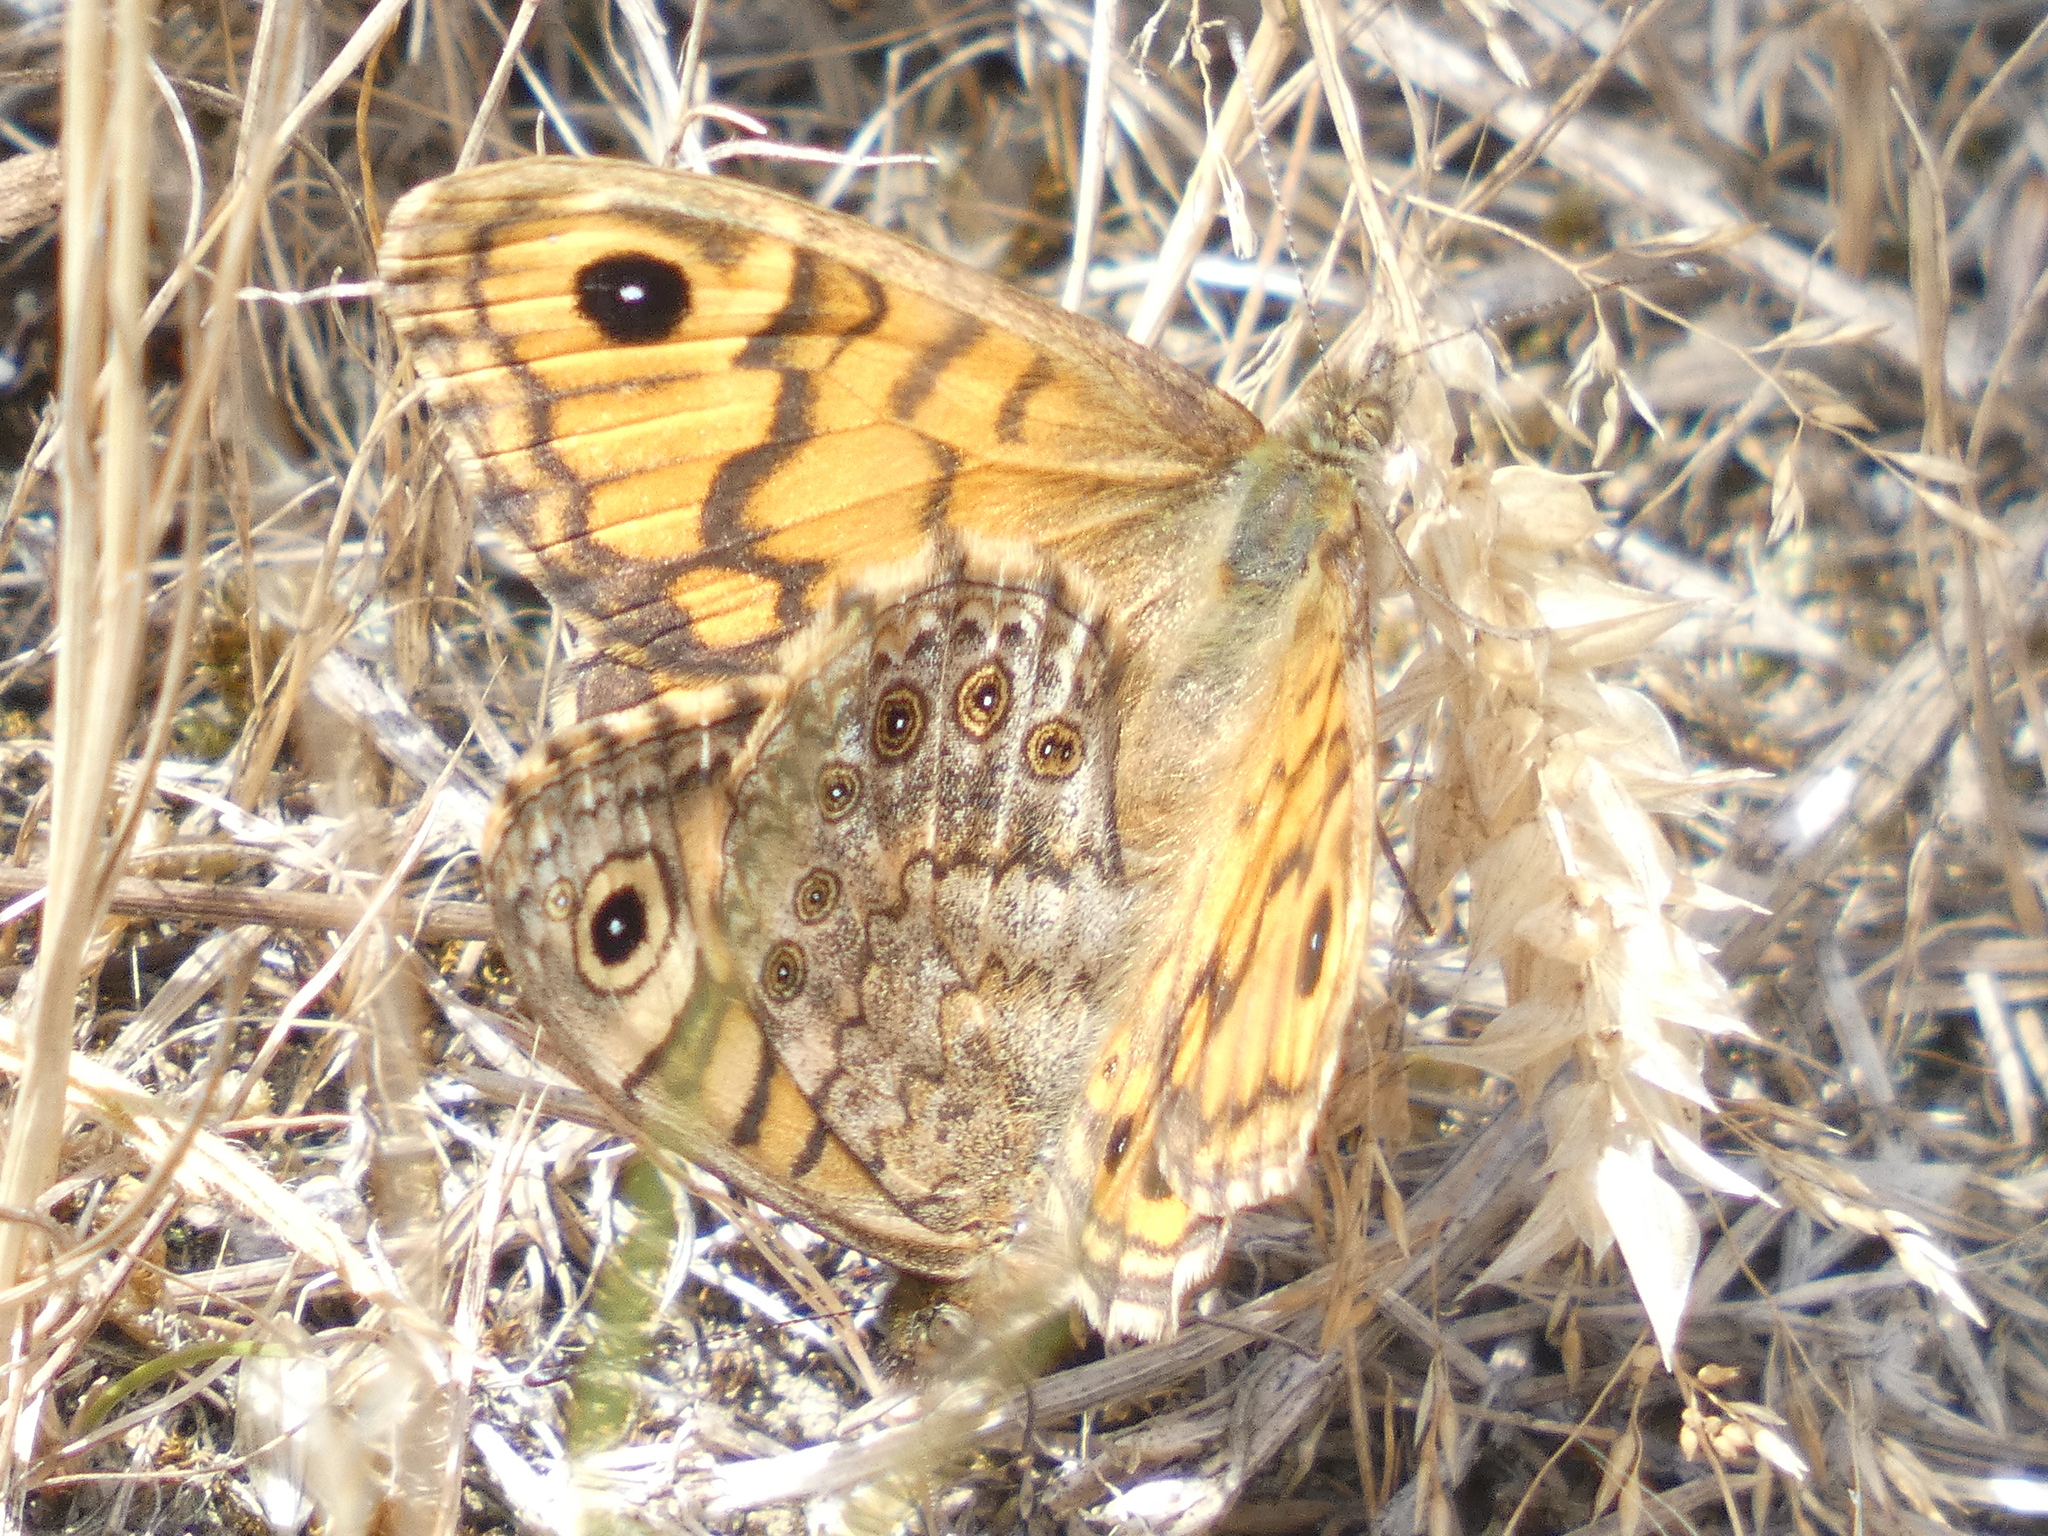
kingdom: Animalia
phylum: Arthropoda
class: Insecta
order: Lepidoptera
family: Nymphalidae
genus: Pararge
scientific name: Pararge Lasiommata megera
